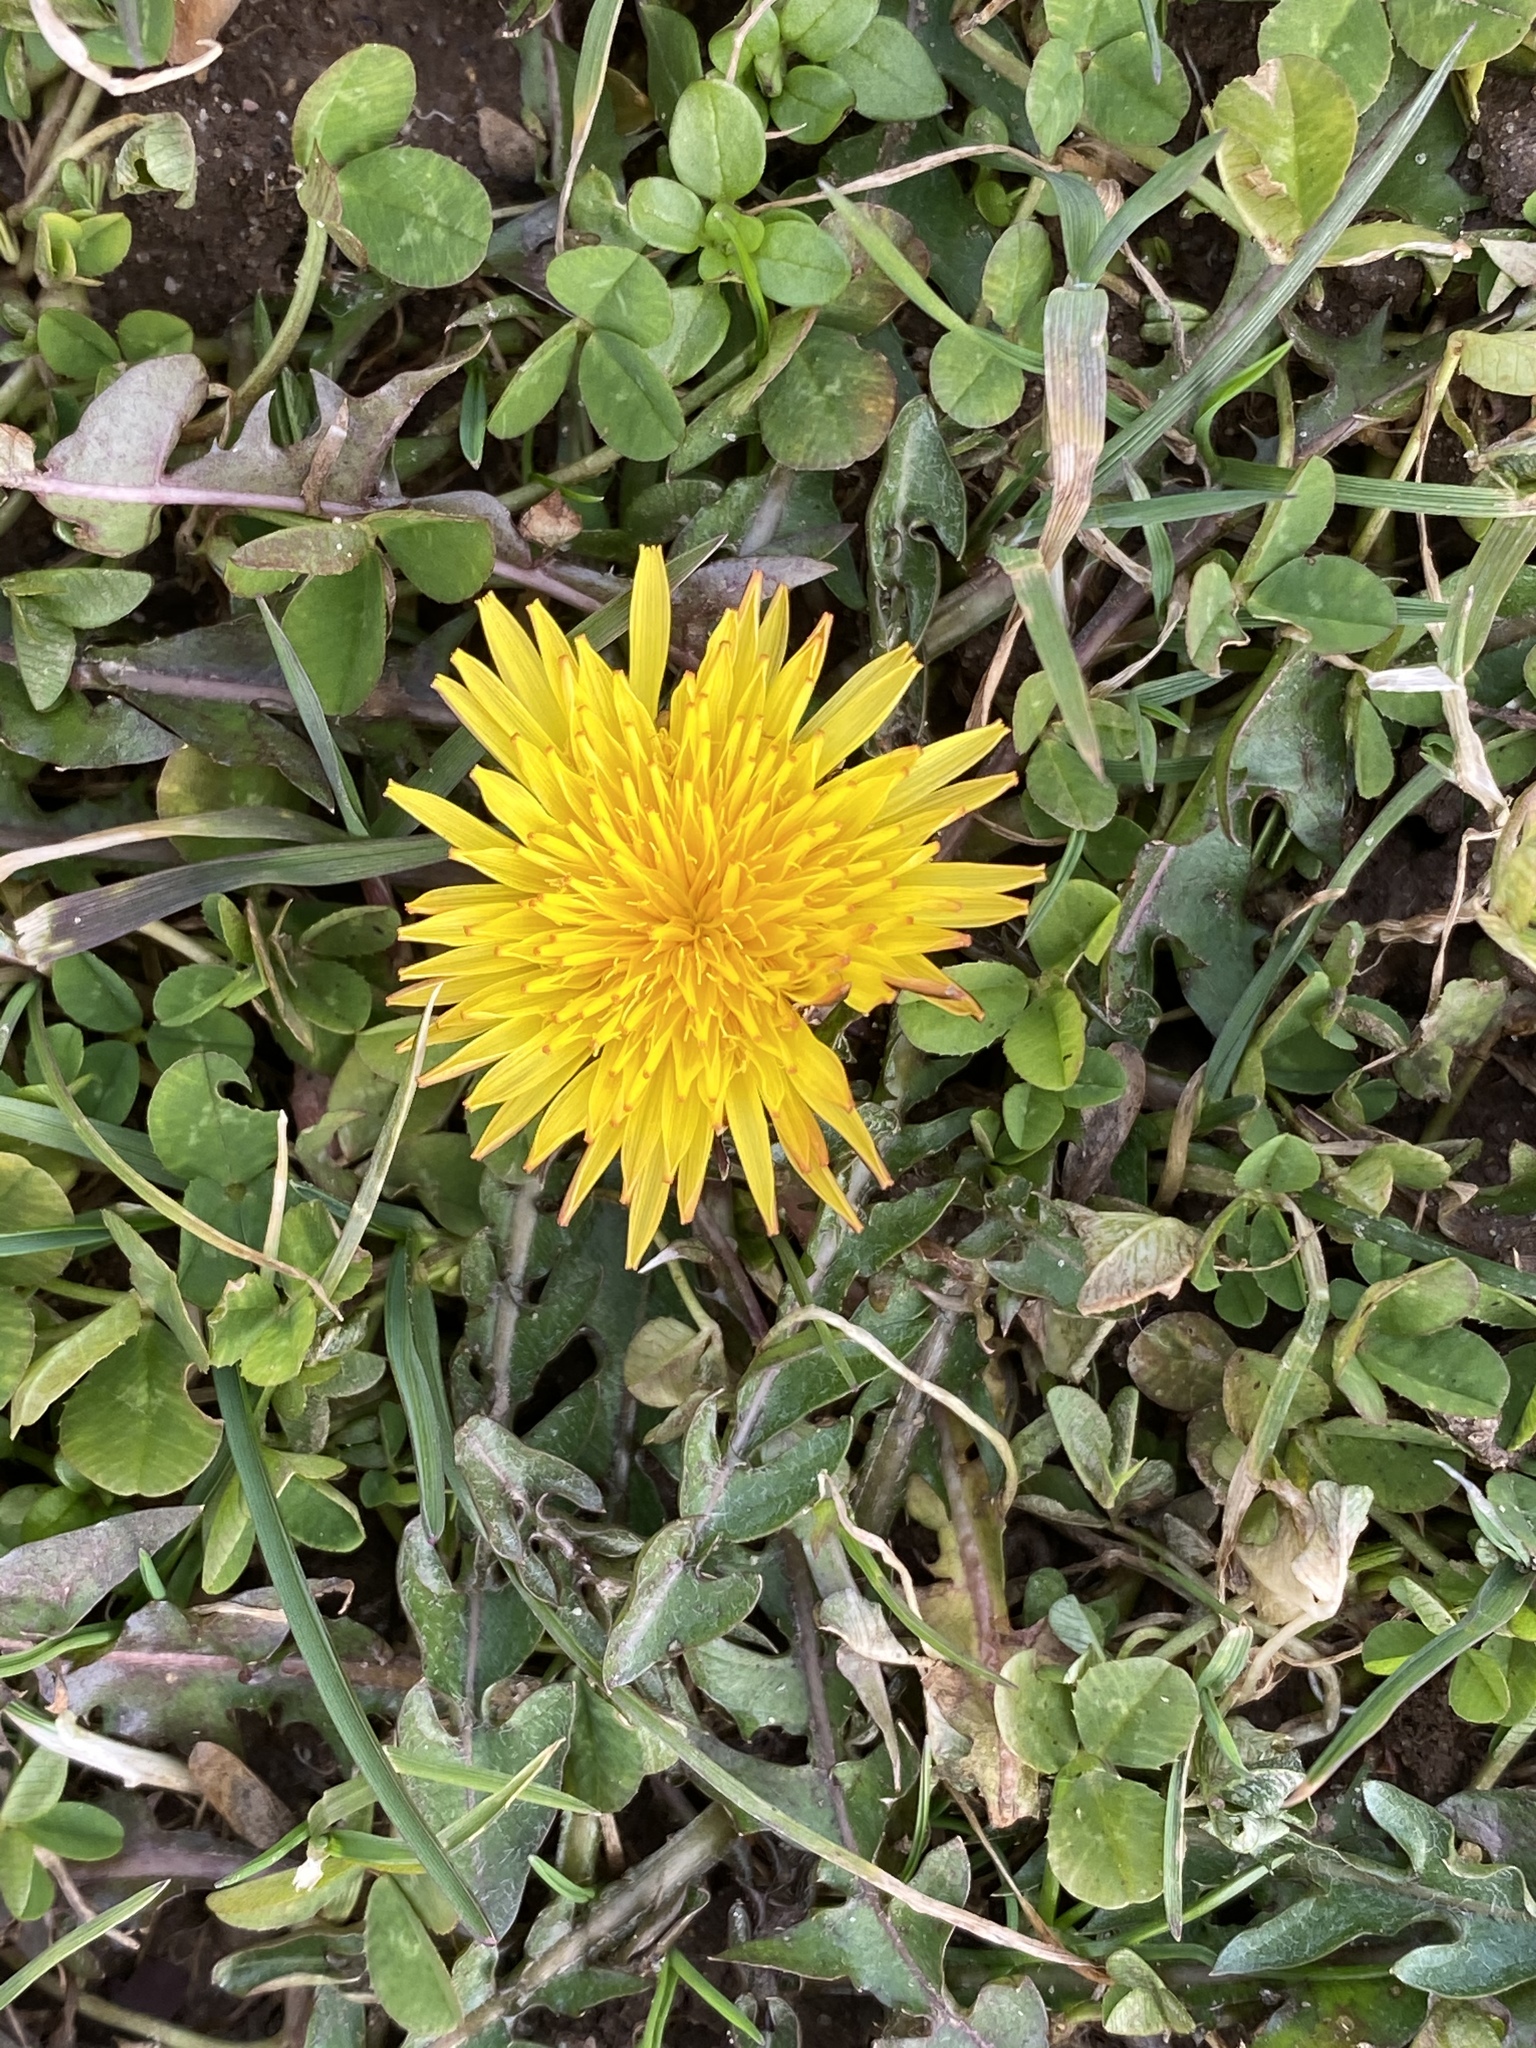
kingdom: Plantae
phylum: Tracheophyta
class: Magnoliopsida
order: Asterales
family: Asteraceae
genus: Taraxacum
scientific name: Taraxacum officinale
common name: Common dandelion
